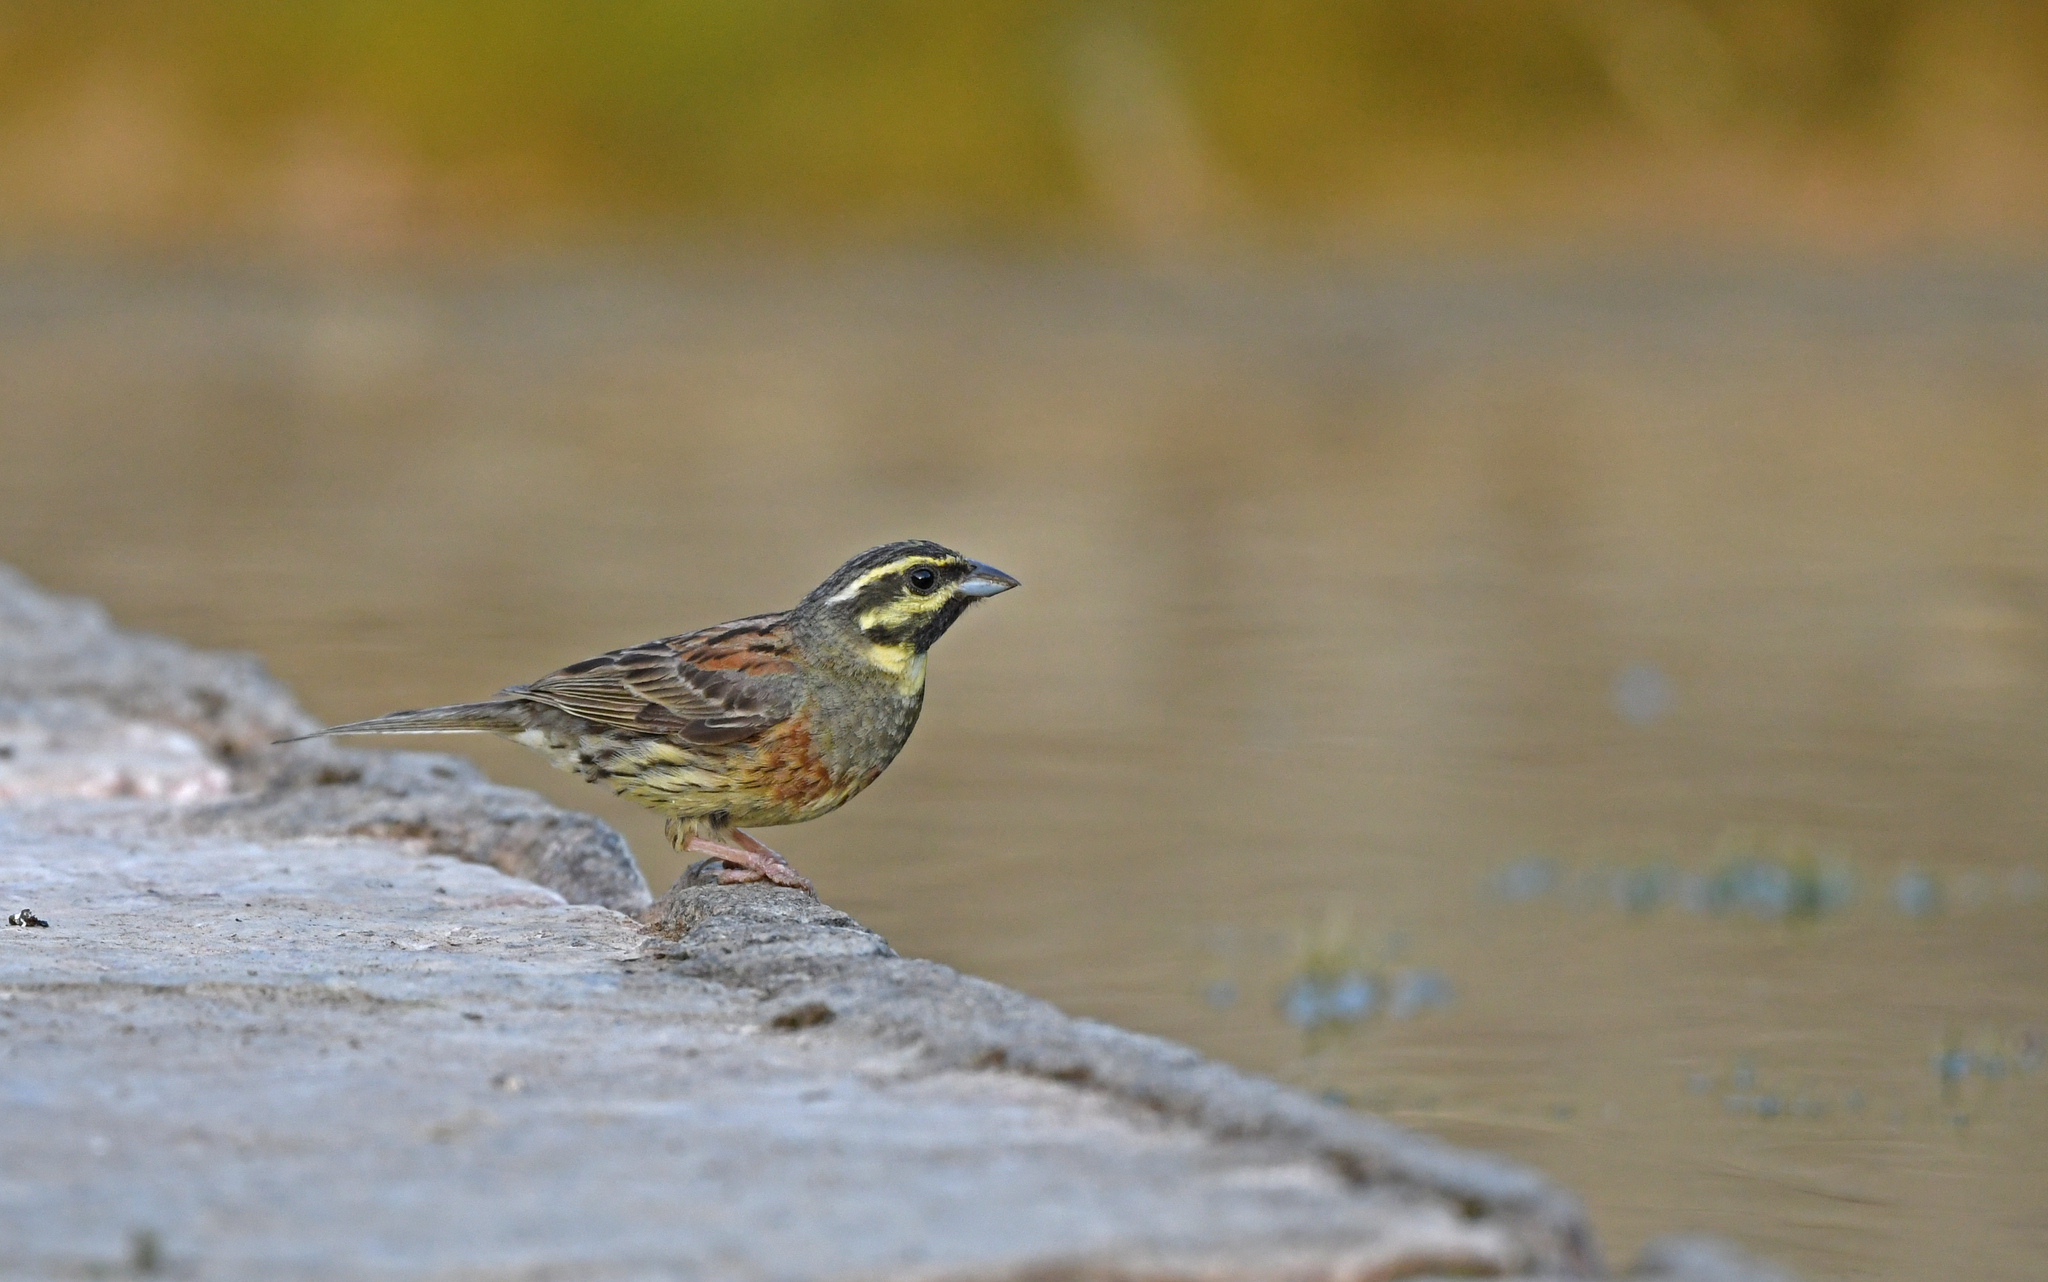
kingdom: Animalia
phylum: Chordata
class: Aves
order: Passeriformes
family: Emberizidae
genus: Emberiza
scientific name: Emberiza cirlus
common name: Cirl bunting
